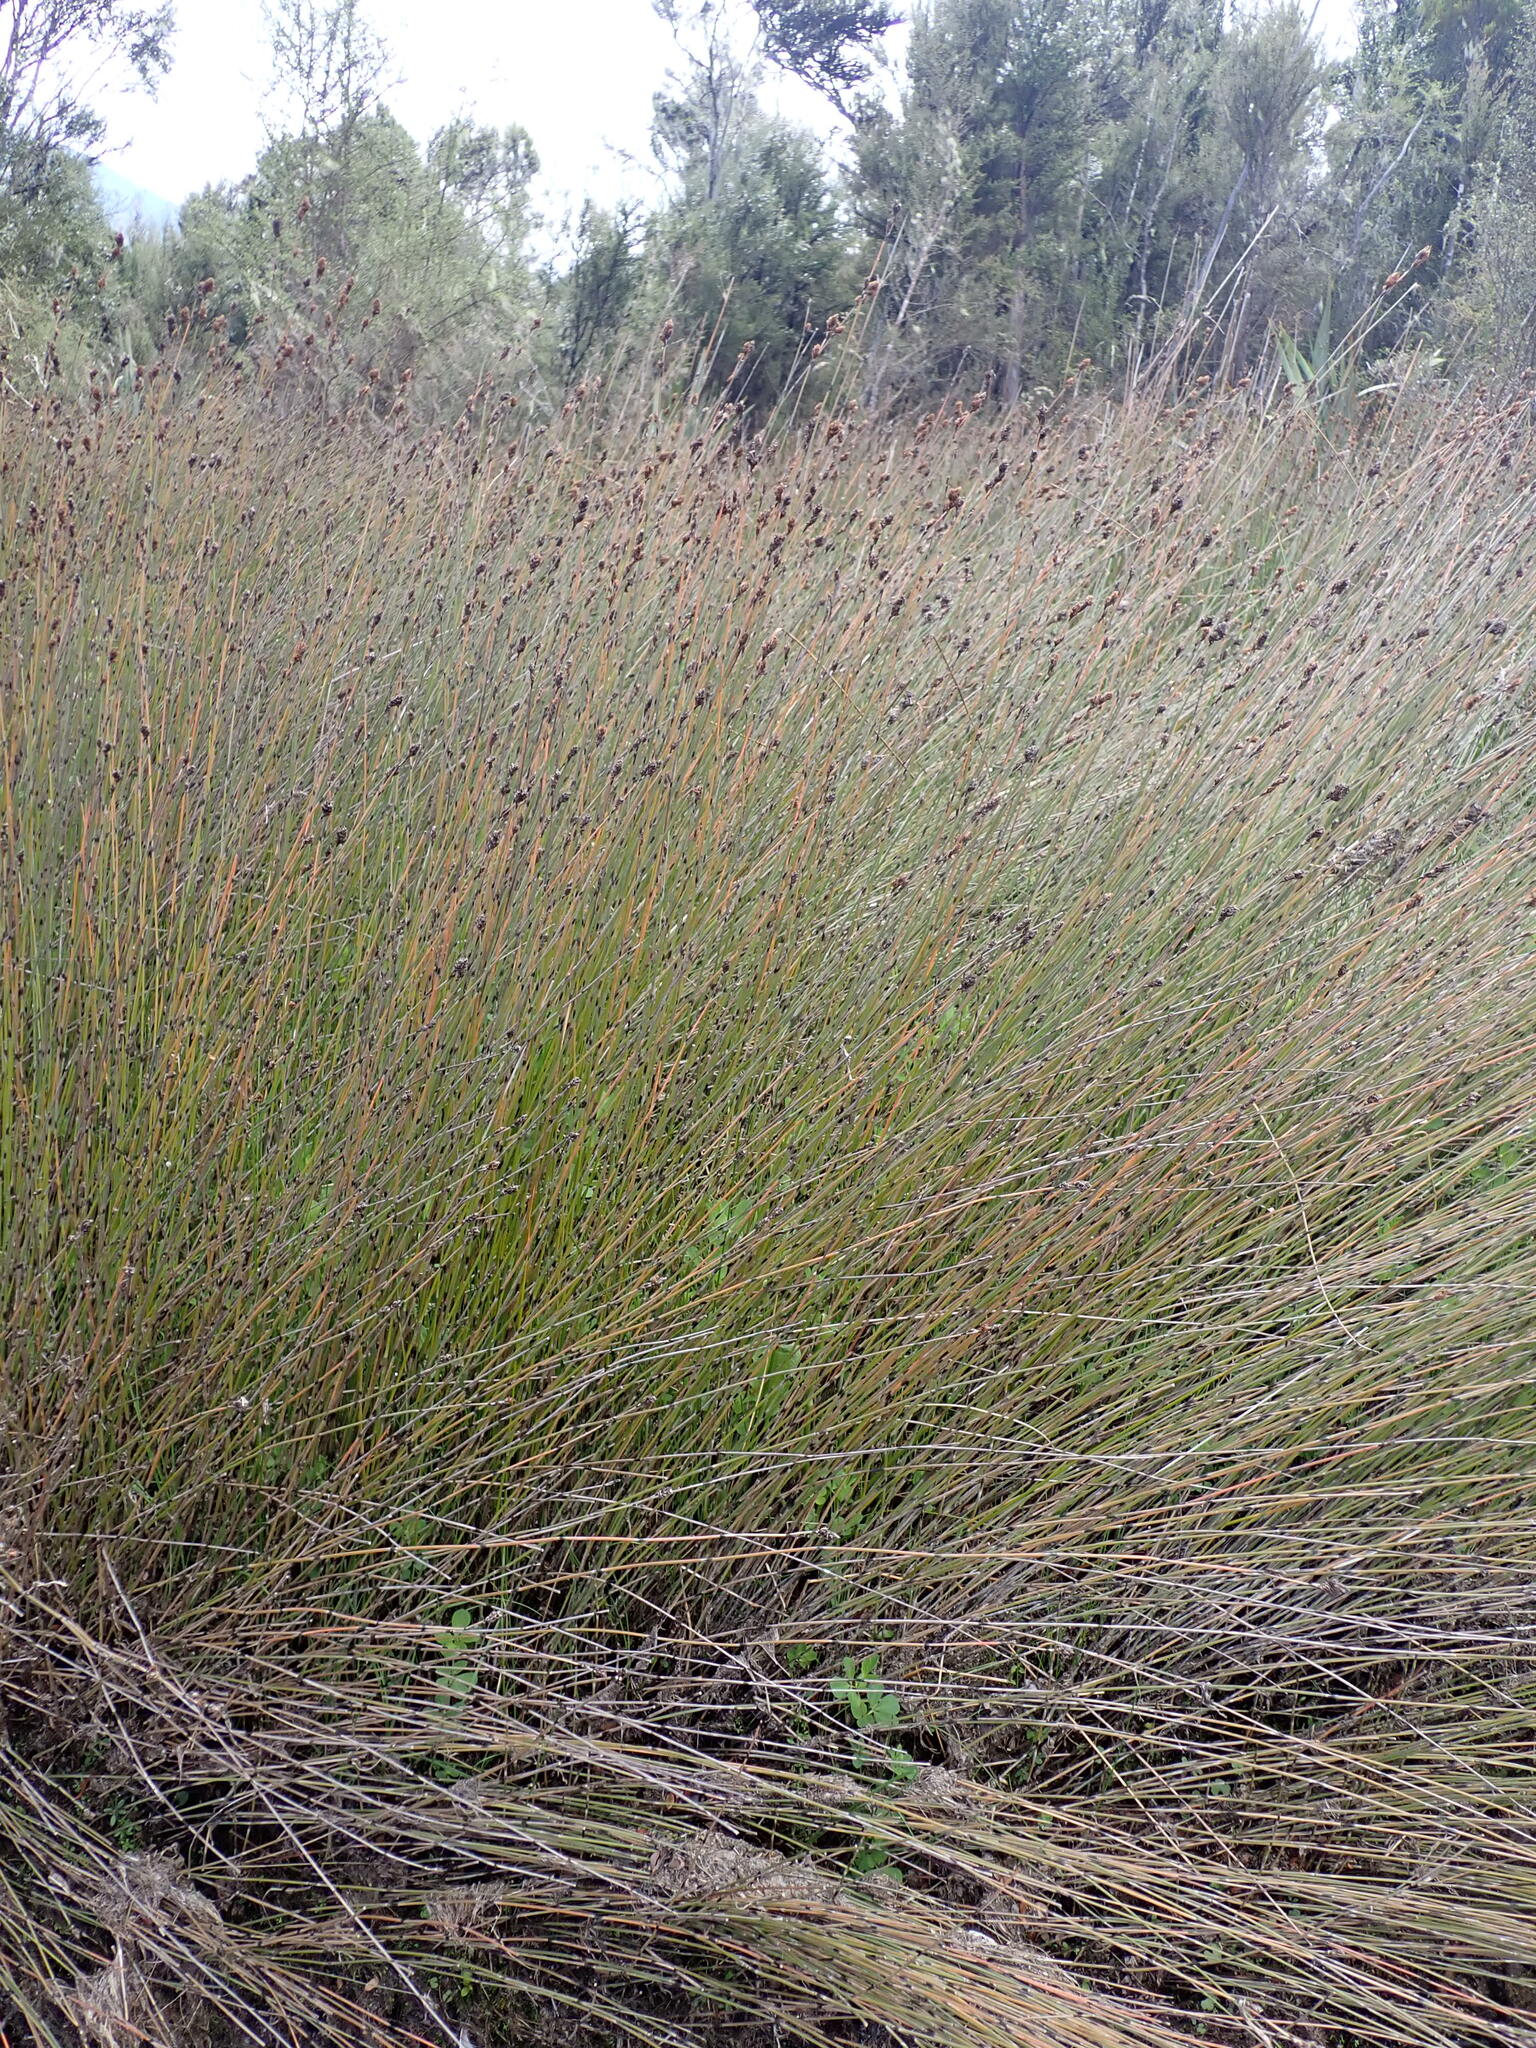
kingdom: Plantae
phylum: Tracheophyta
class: Liliopsida
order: Poales
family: Restionaceae
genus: Apodasmia
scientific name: Apodasmia similis
